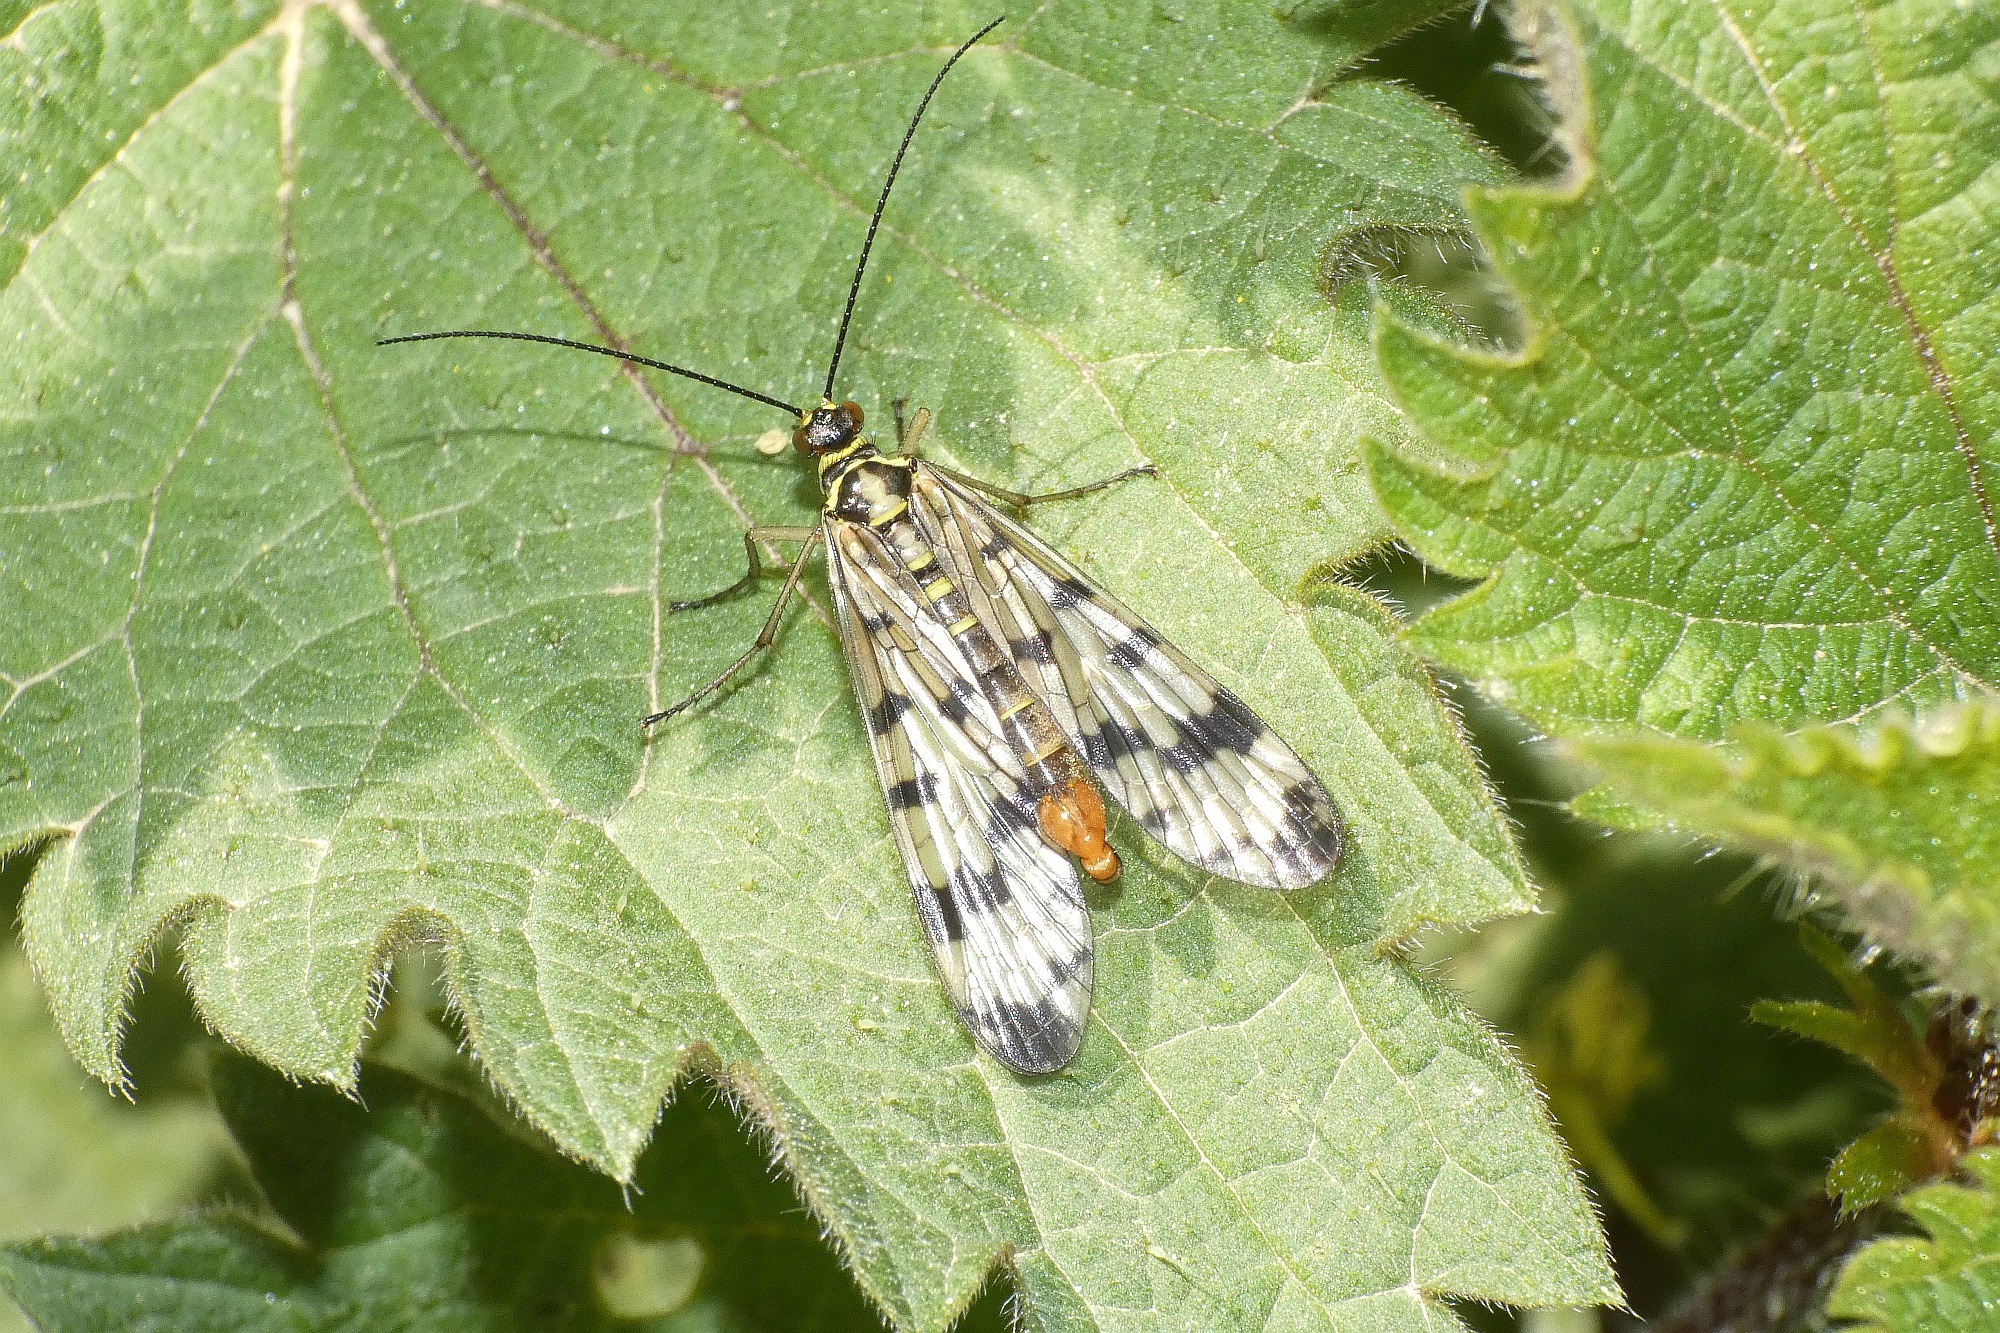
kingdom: Animalia
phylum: Arthropoda
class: Insecta
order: Mecoptera
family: Panorpidae
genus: Panorpa
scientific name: Panorpa communis
